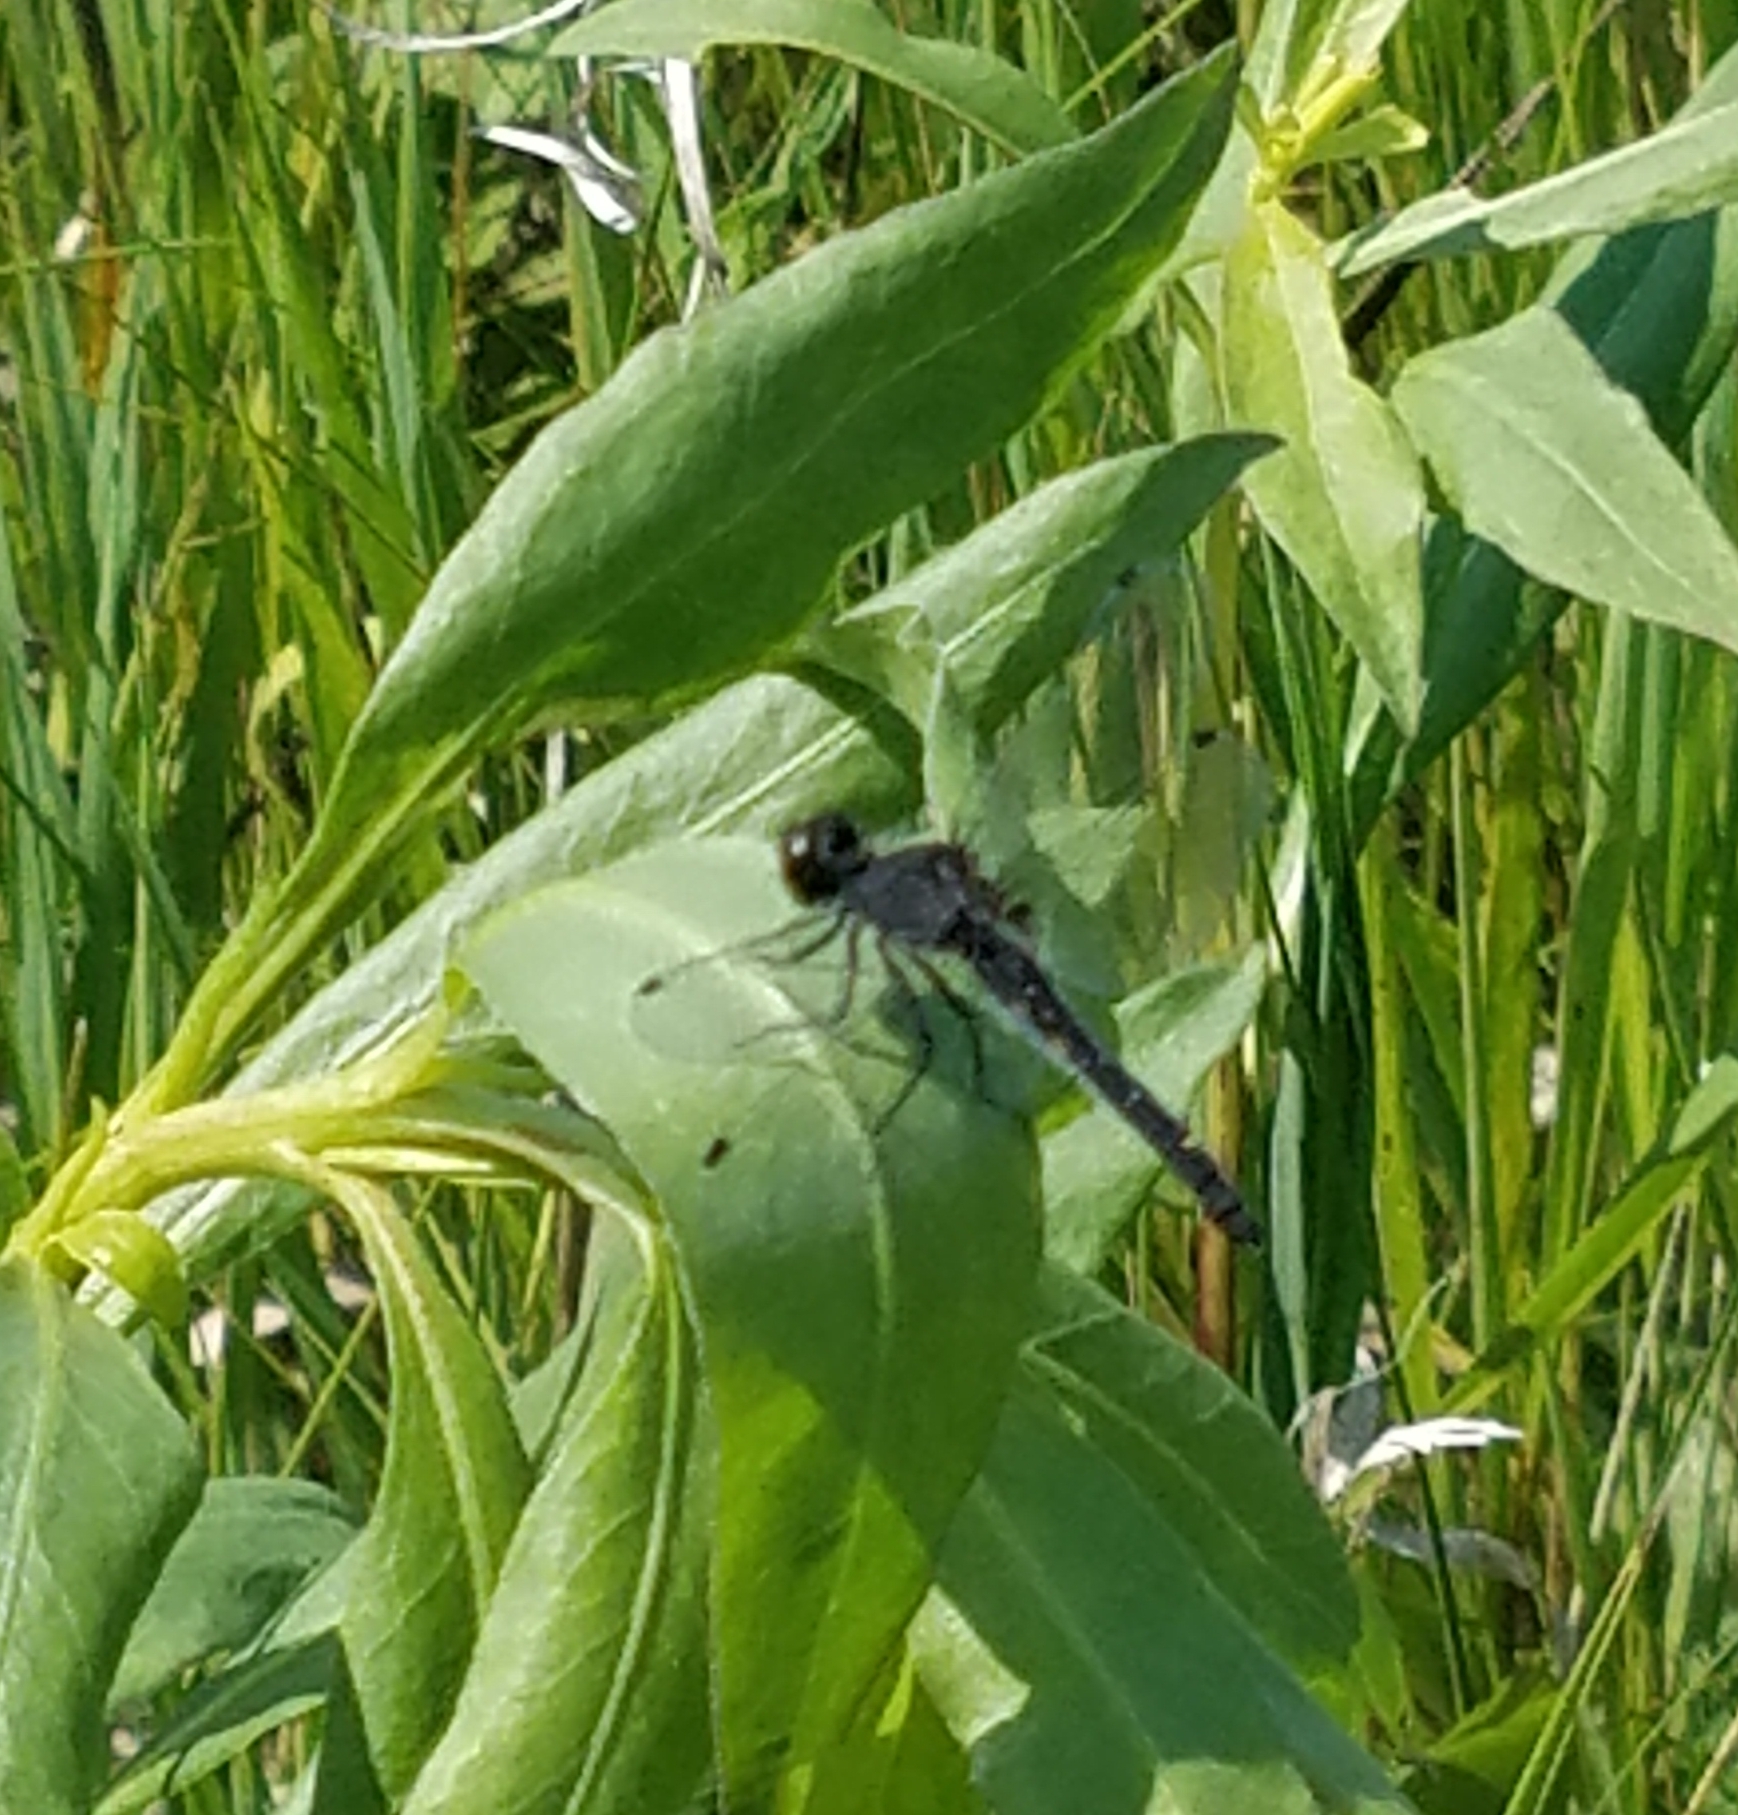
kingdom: Animalia
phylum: Arthropoda
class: Insecta
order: Odonata
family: Libellulidae
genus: Leucorrhinia
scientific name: Leucorrhinia intacta
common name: Dot-tailed whiteface
